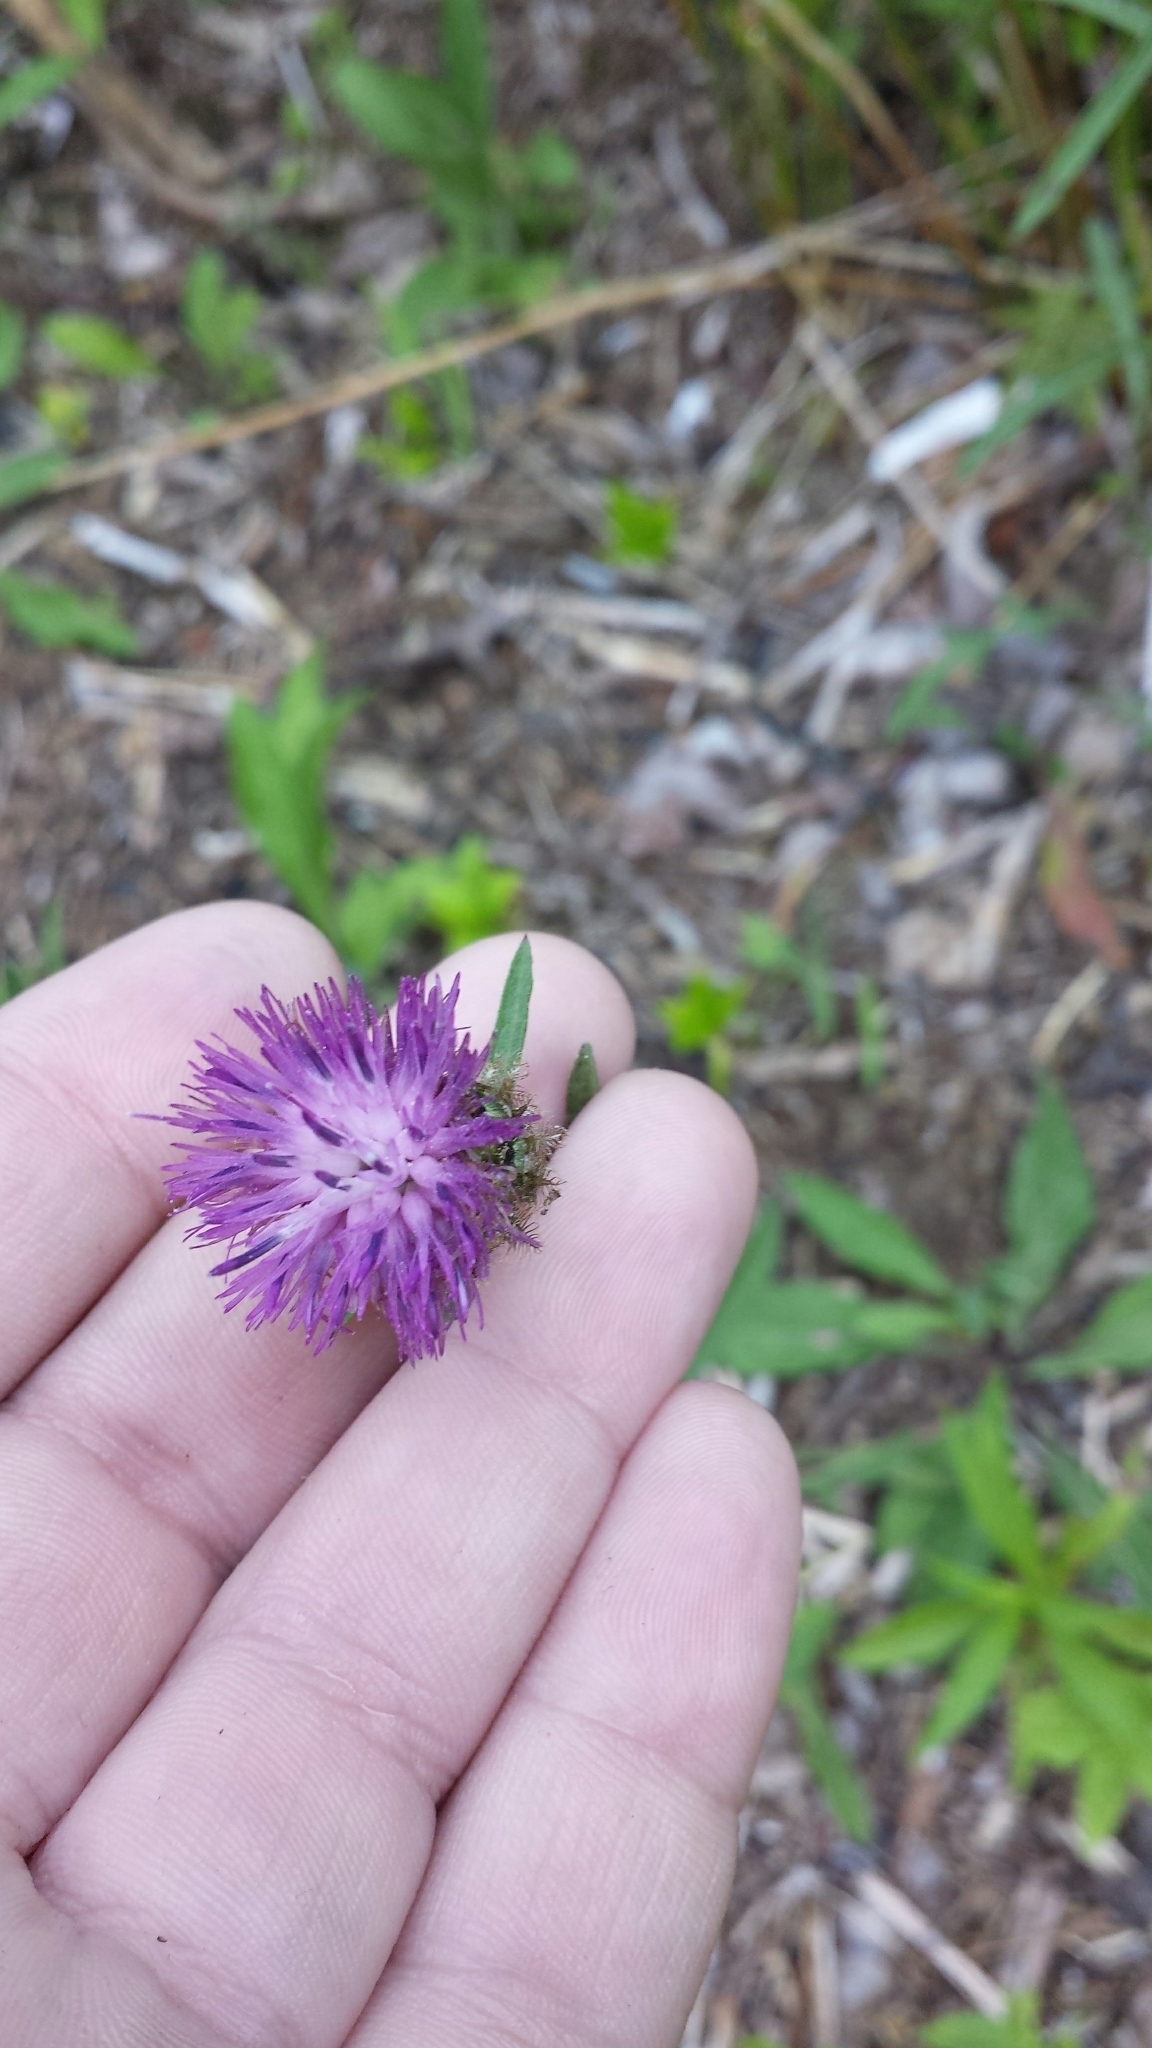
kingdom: Plantae
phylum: Tracheophyta
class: Magnoliopsida
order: Asterales
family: Asteraceae
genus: Centaurea
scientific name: Centaurea nigra
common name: Lesser knapweed
